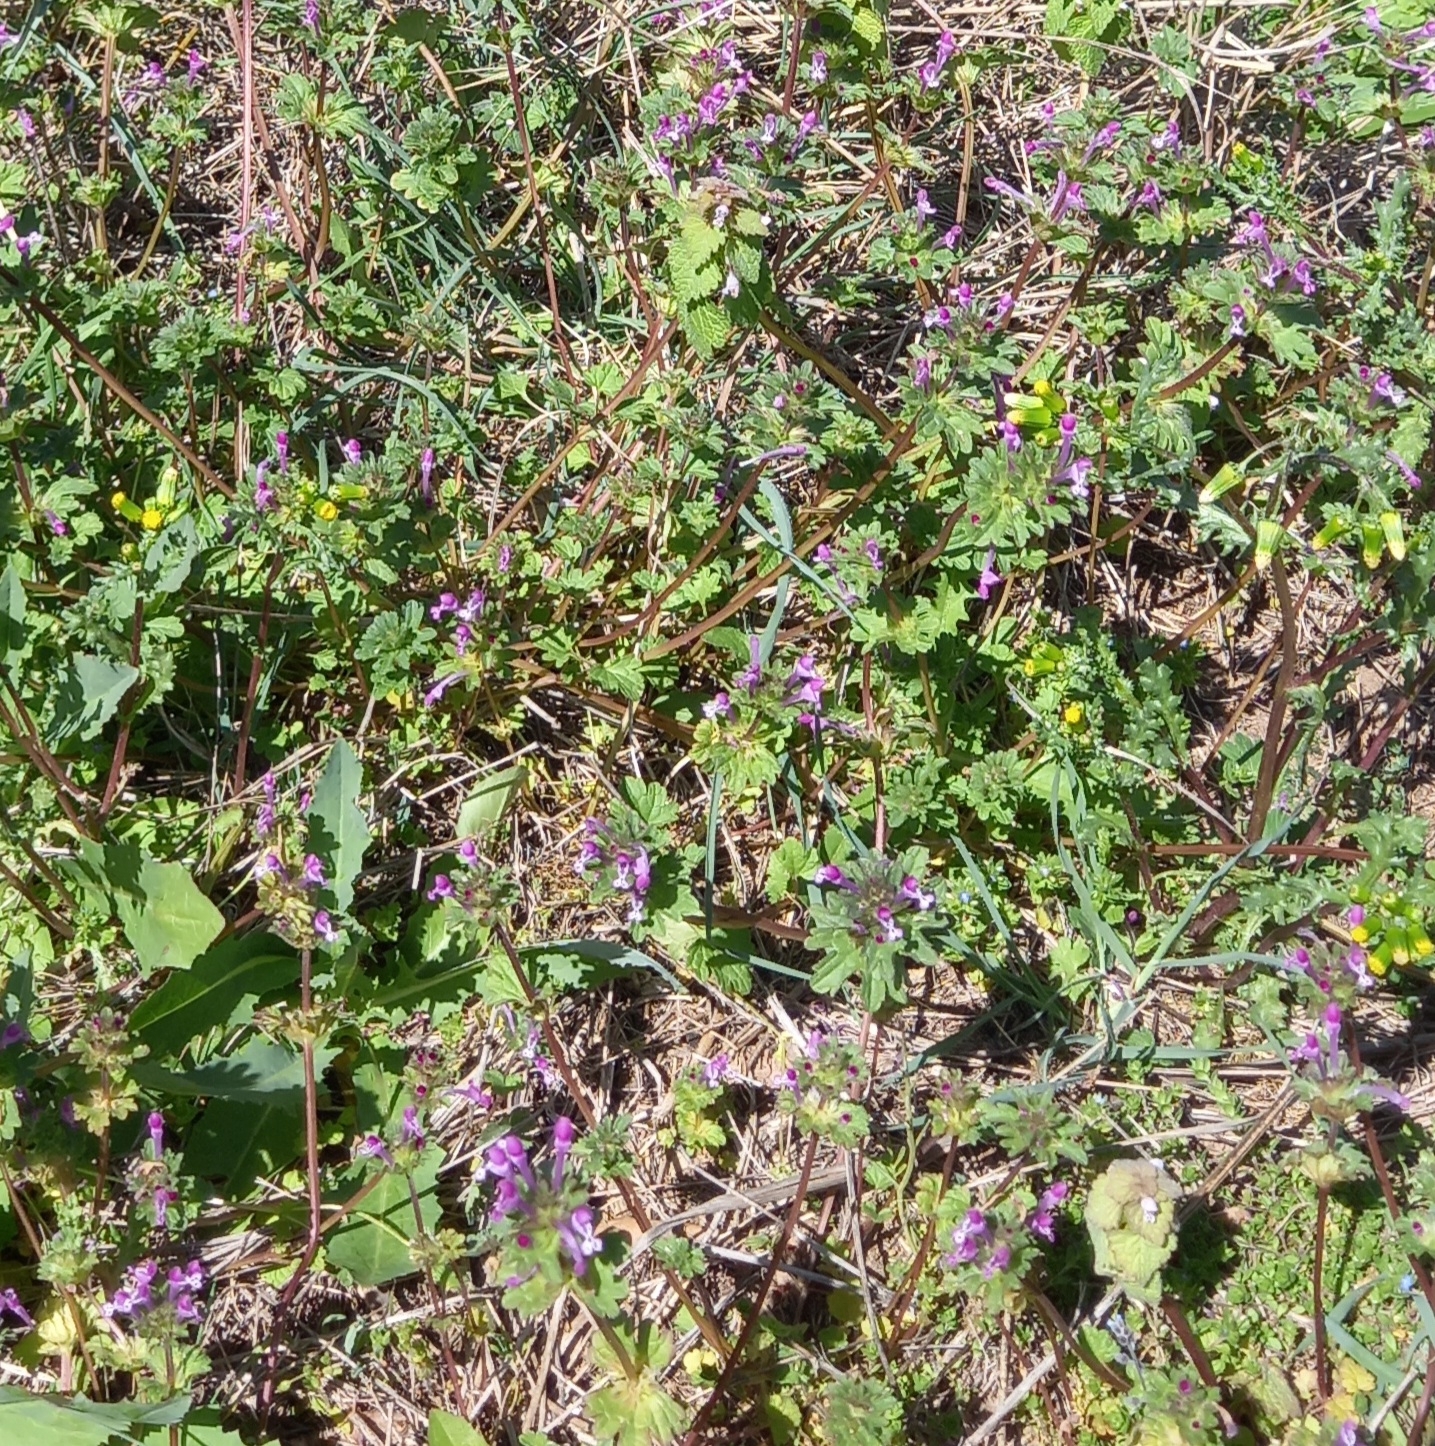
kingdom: Plantae
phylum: Tracheophyta
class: Magnoliopsida
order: Lamiales
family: Lamiaceae
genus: Lamium
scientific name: Lamium amplexicaule
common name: Henbit dead-nettle
